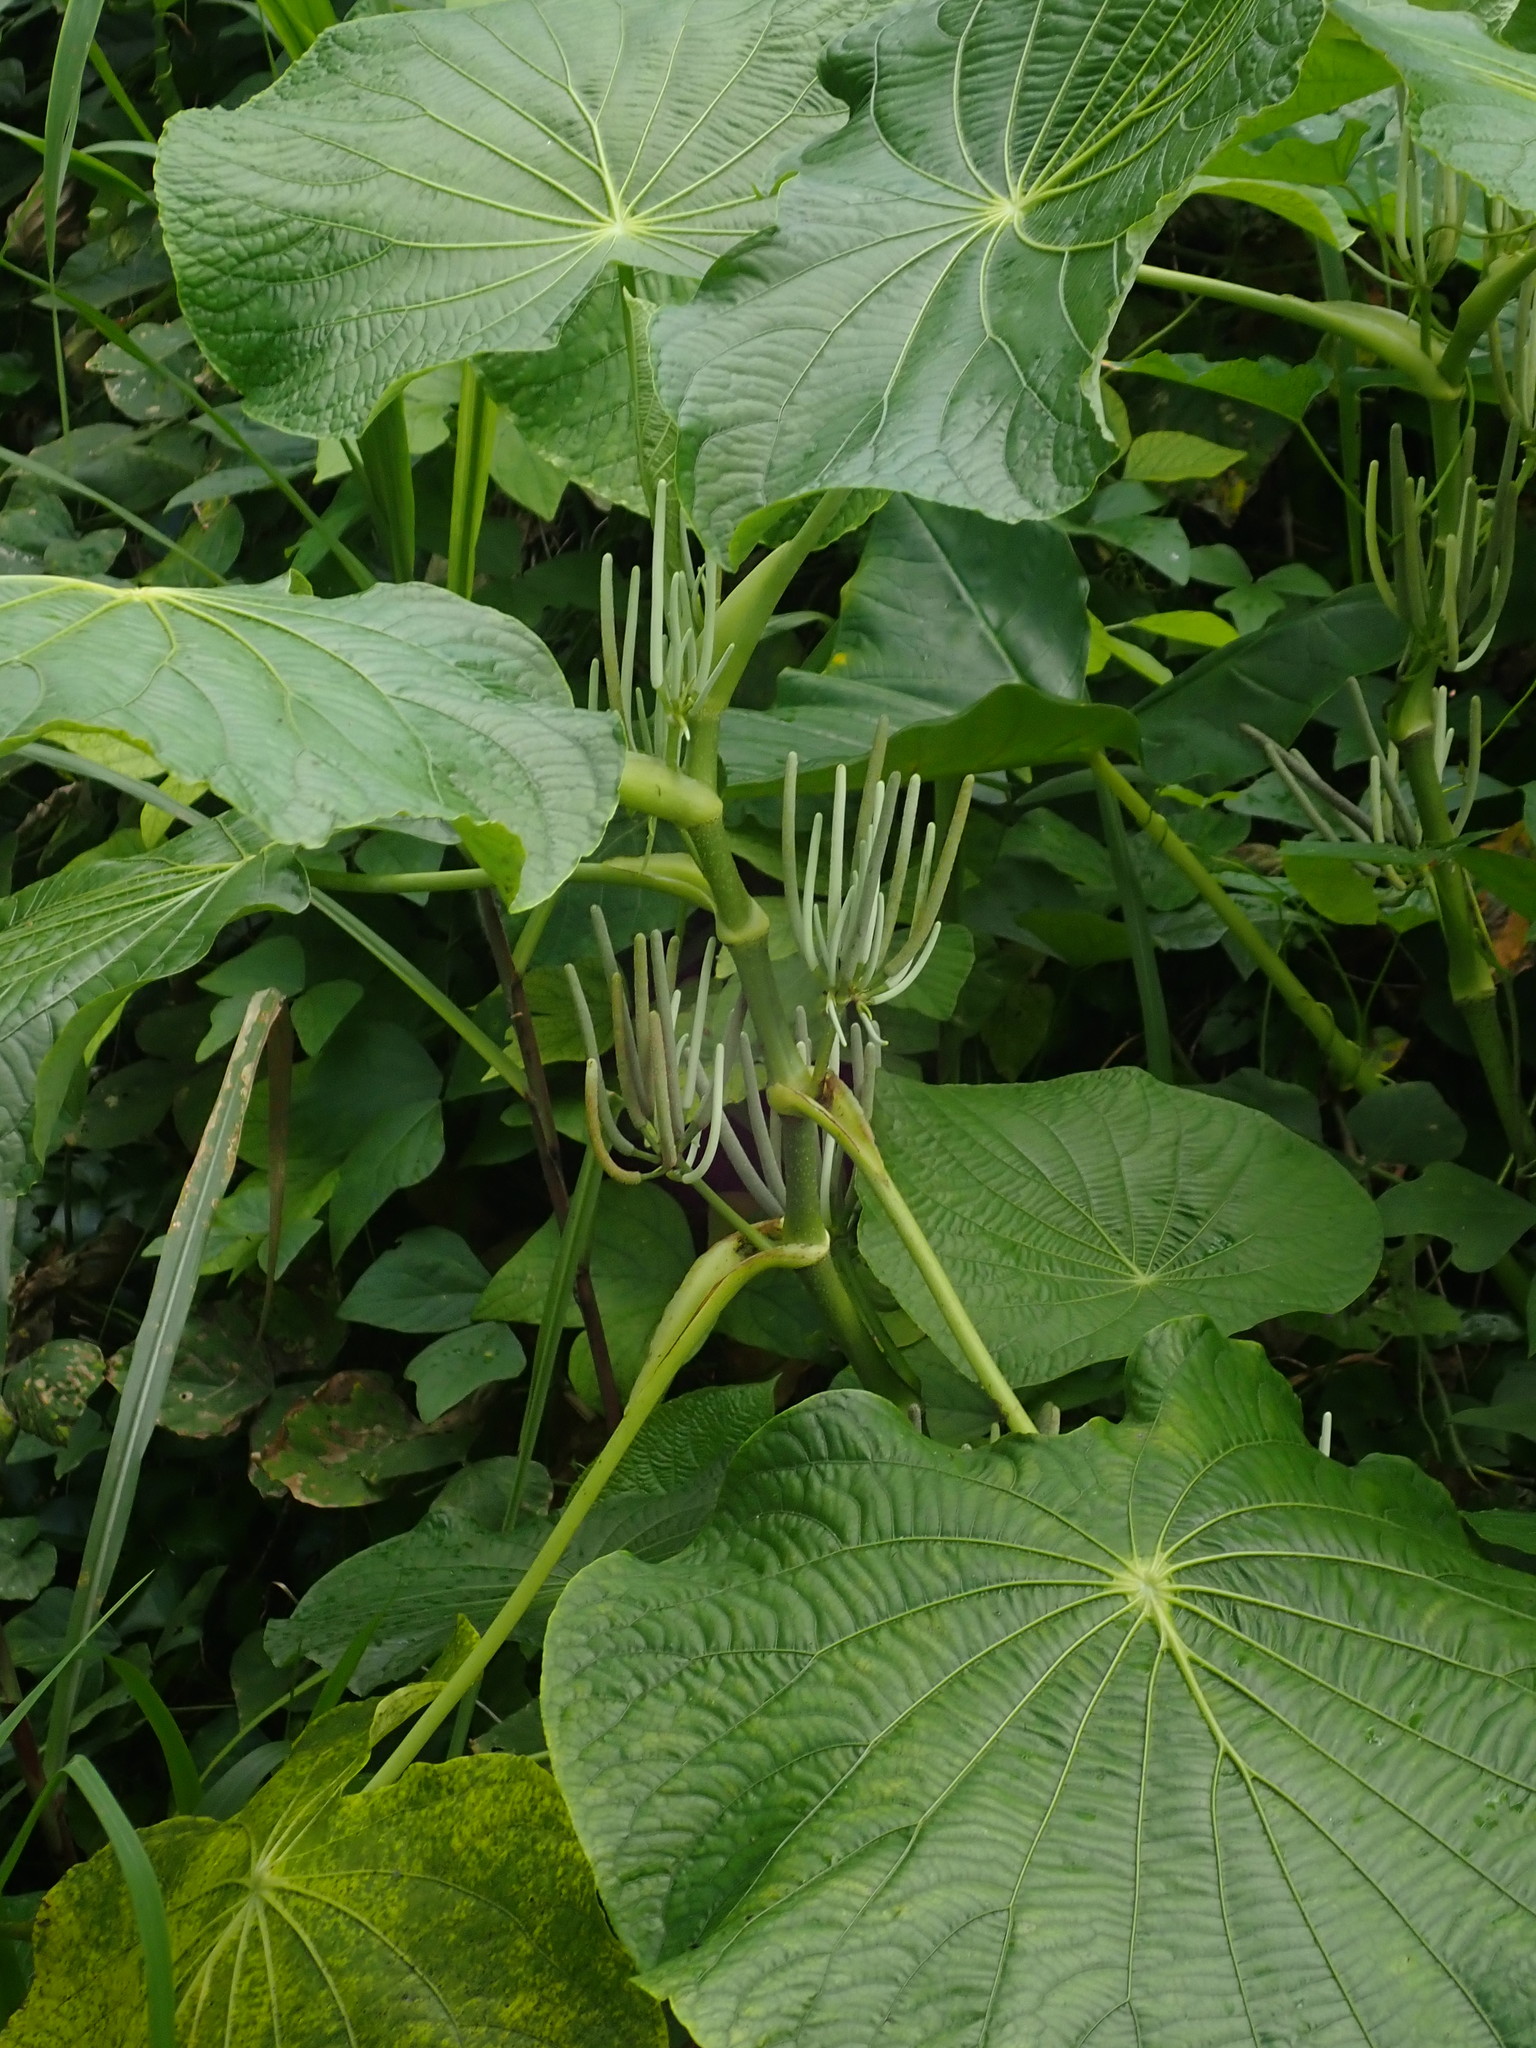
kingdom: Plantae
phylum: Tracheophyta
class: Magnoliopsida
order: Piperales
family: Piperaceae
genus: Piper
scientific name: Piper peltatum
